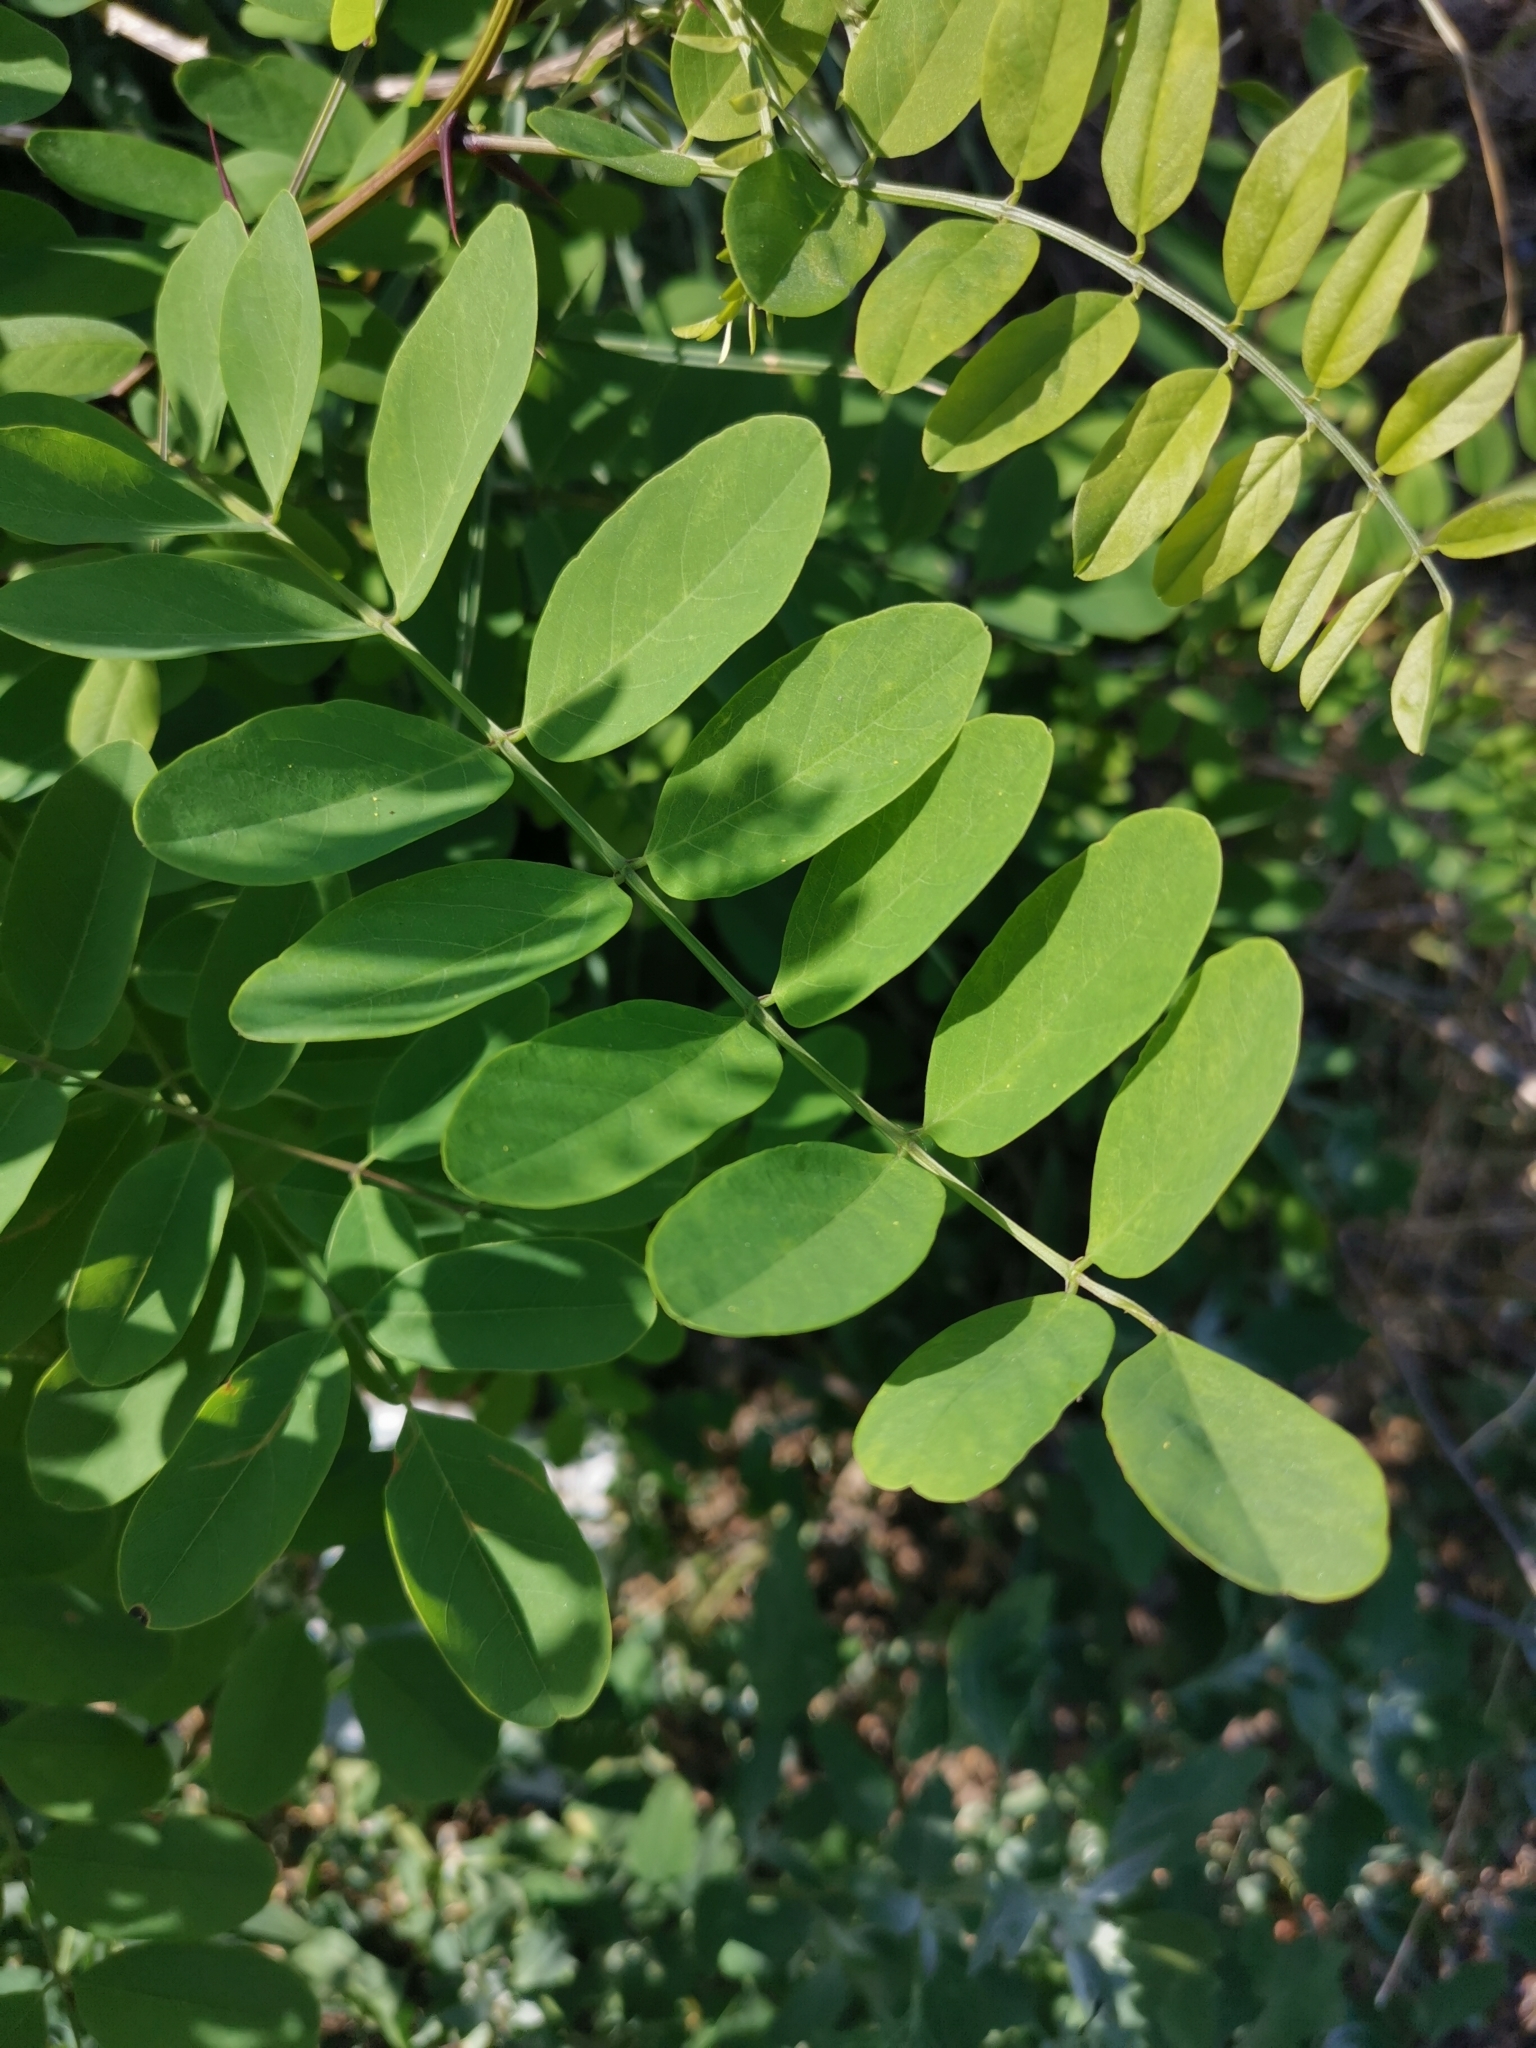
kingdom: Plantae
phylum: Tracheophyta
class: Magnoliopsida
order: Fabales
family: Fabaceae
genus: Robinia
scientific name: Robinia pseudoacacia
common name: Black locust
